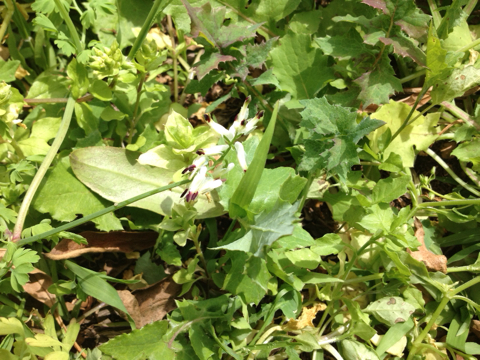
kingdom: Plantae
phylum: Tracheophyta
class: Magnoliopsida
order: Ranunculales
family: Papaveraceae
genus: Fumaria
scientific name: Fumaria capreolata
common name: White ramping-fumitory
